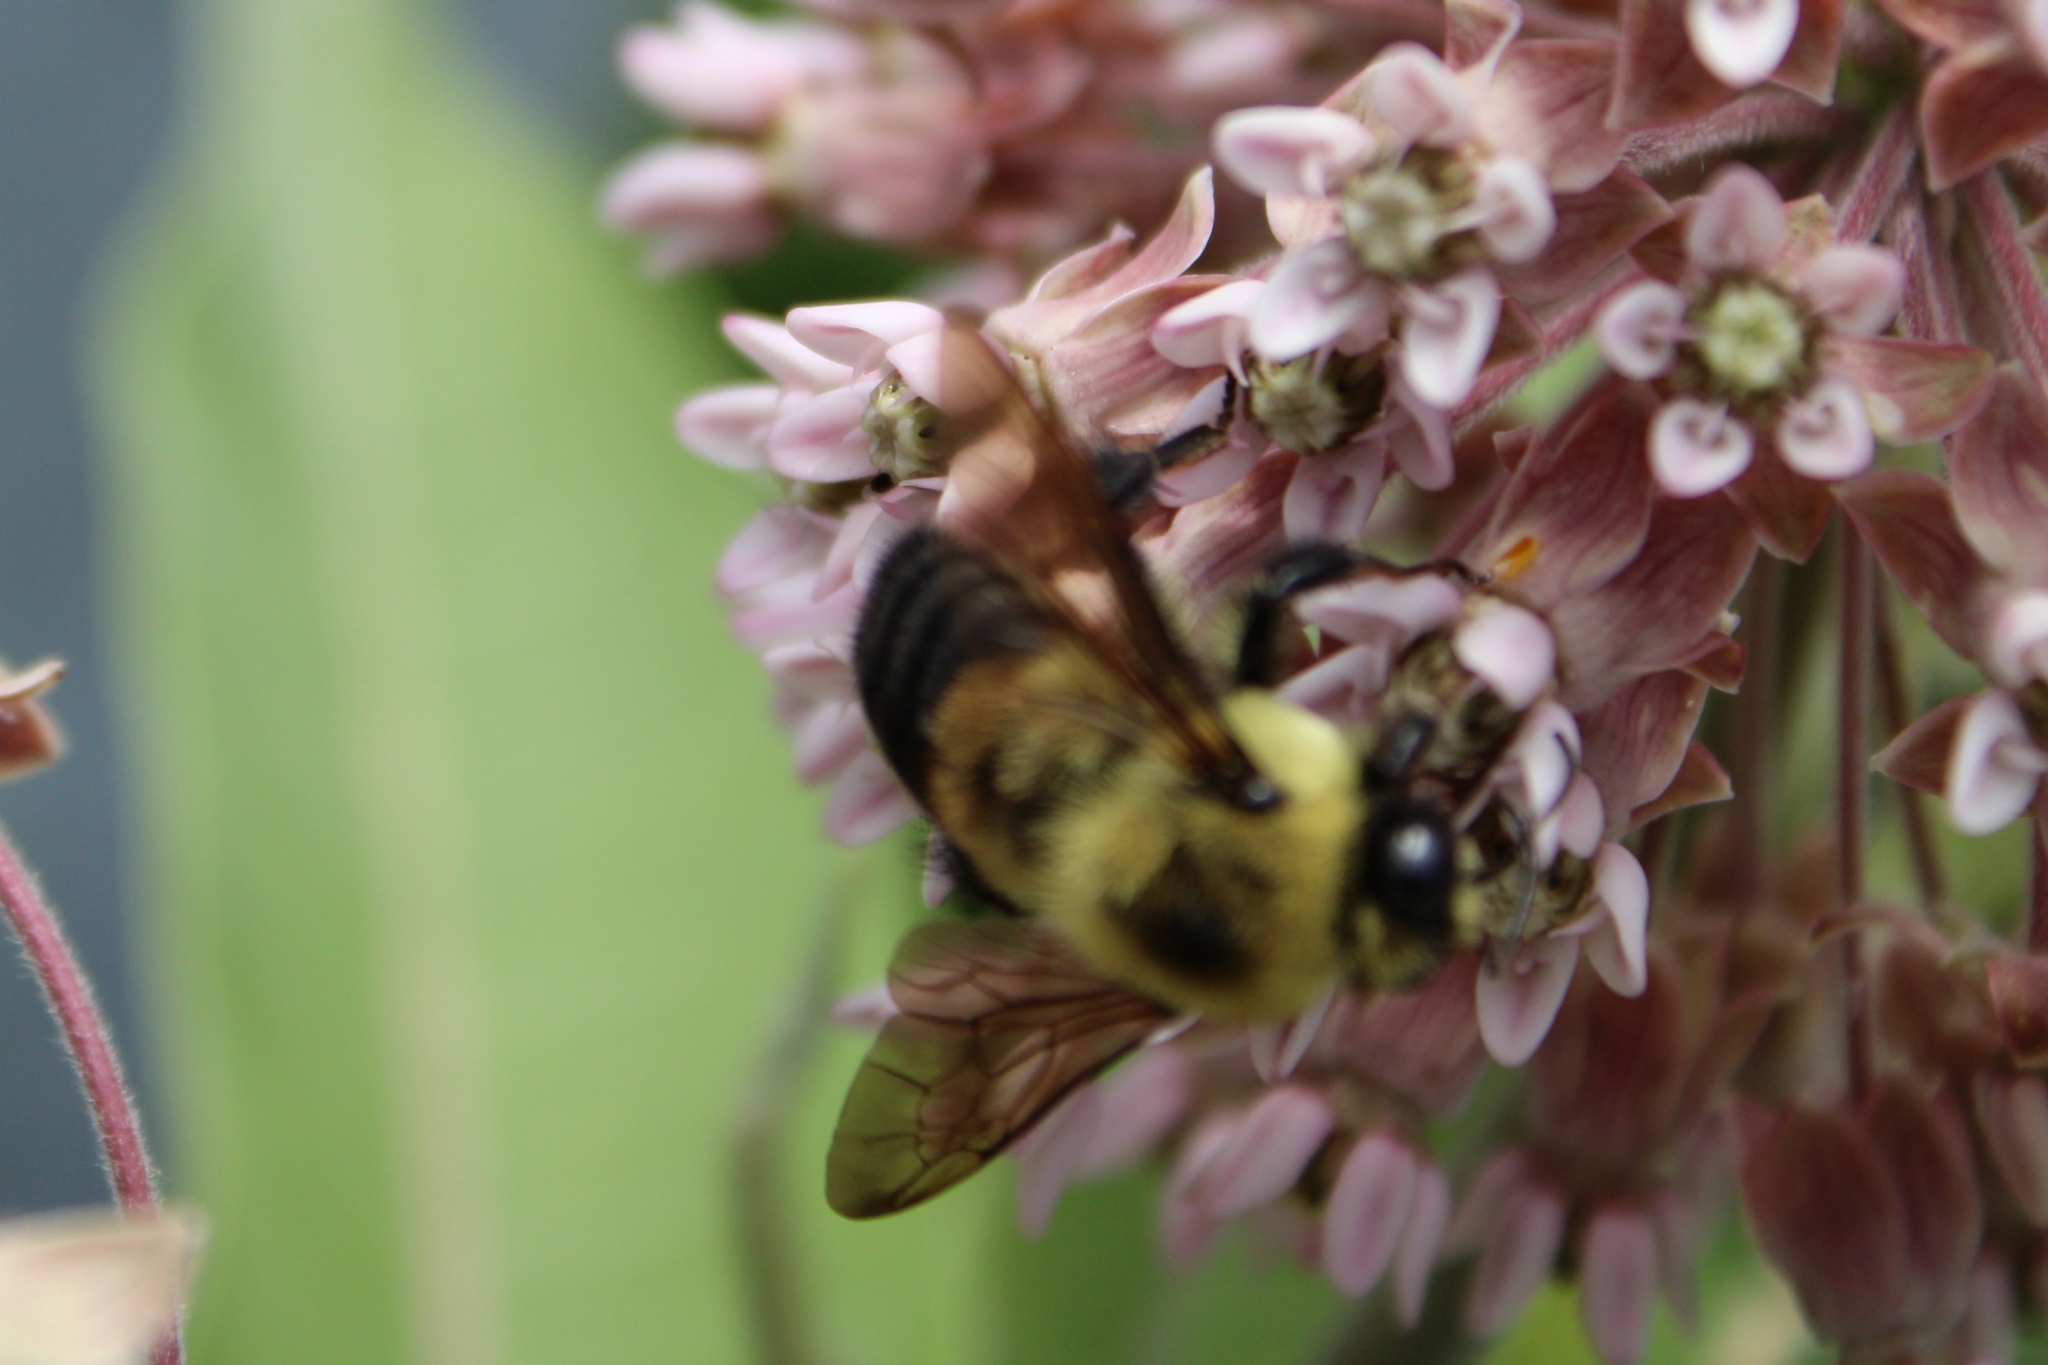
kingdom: Animalia
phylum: Arthropoda
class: Insecta
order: Hymenoptera
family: Apidae
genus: Bombus
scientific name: Bombus griseocollis
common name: Brown-belted bumble bee
